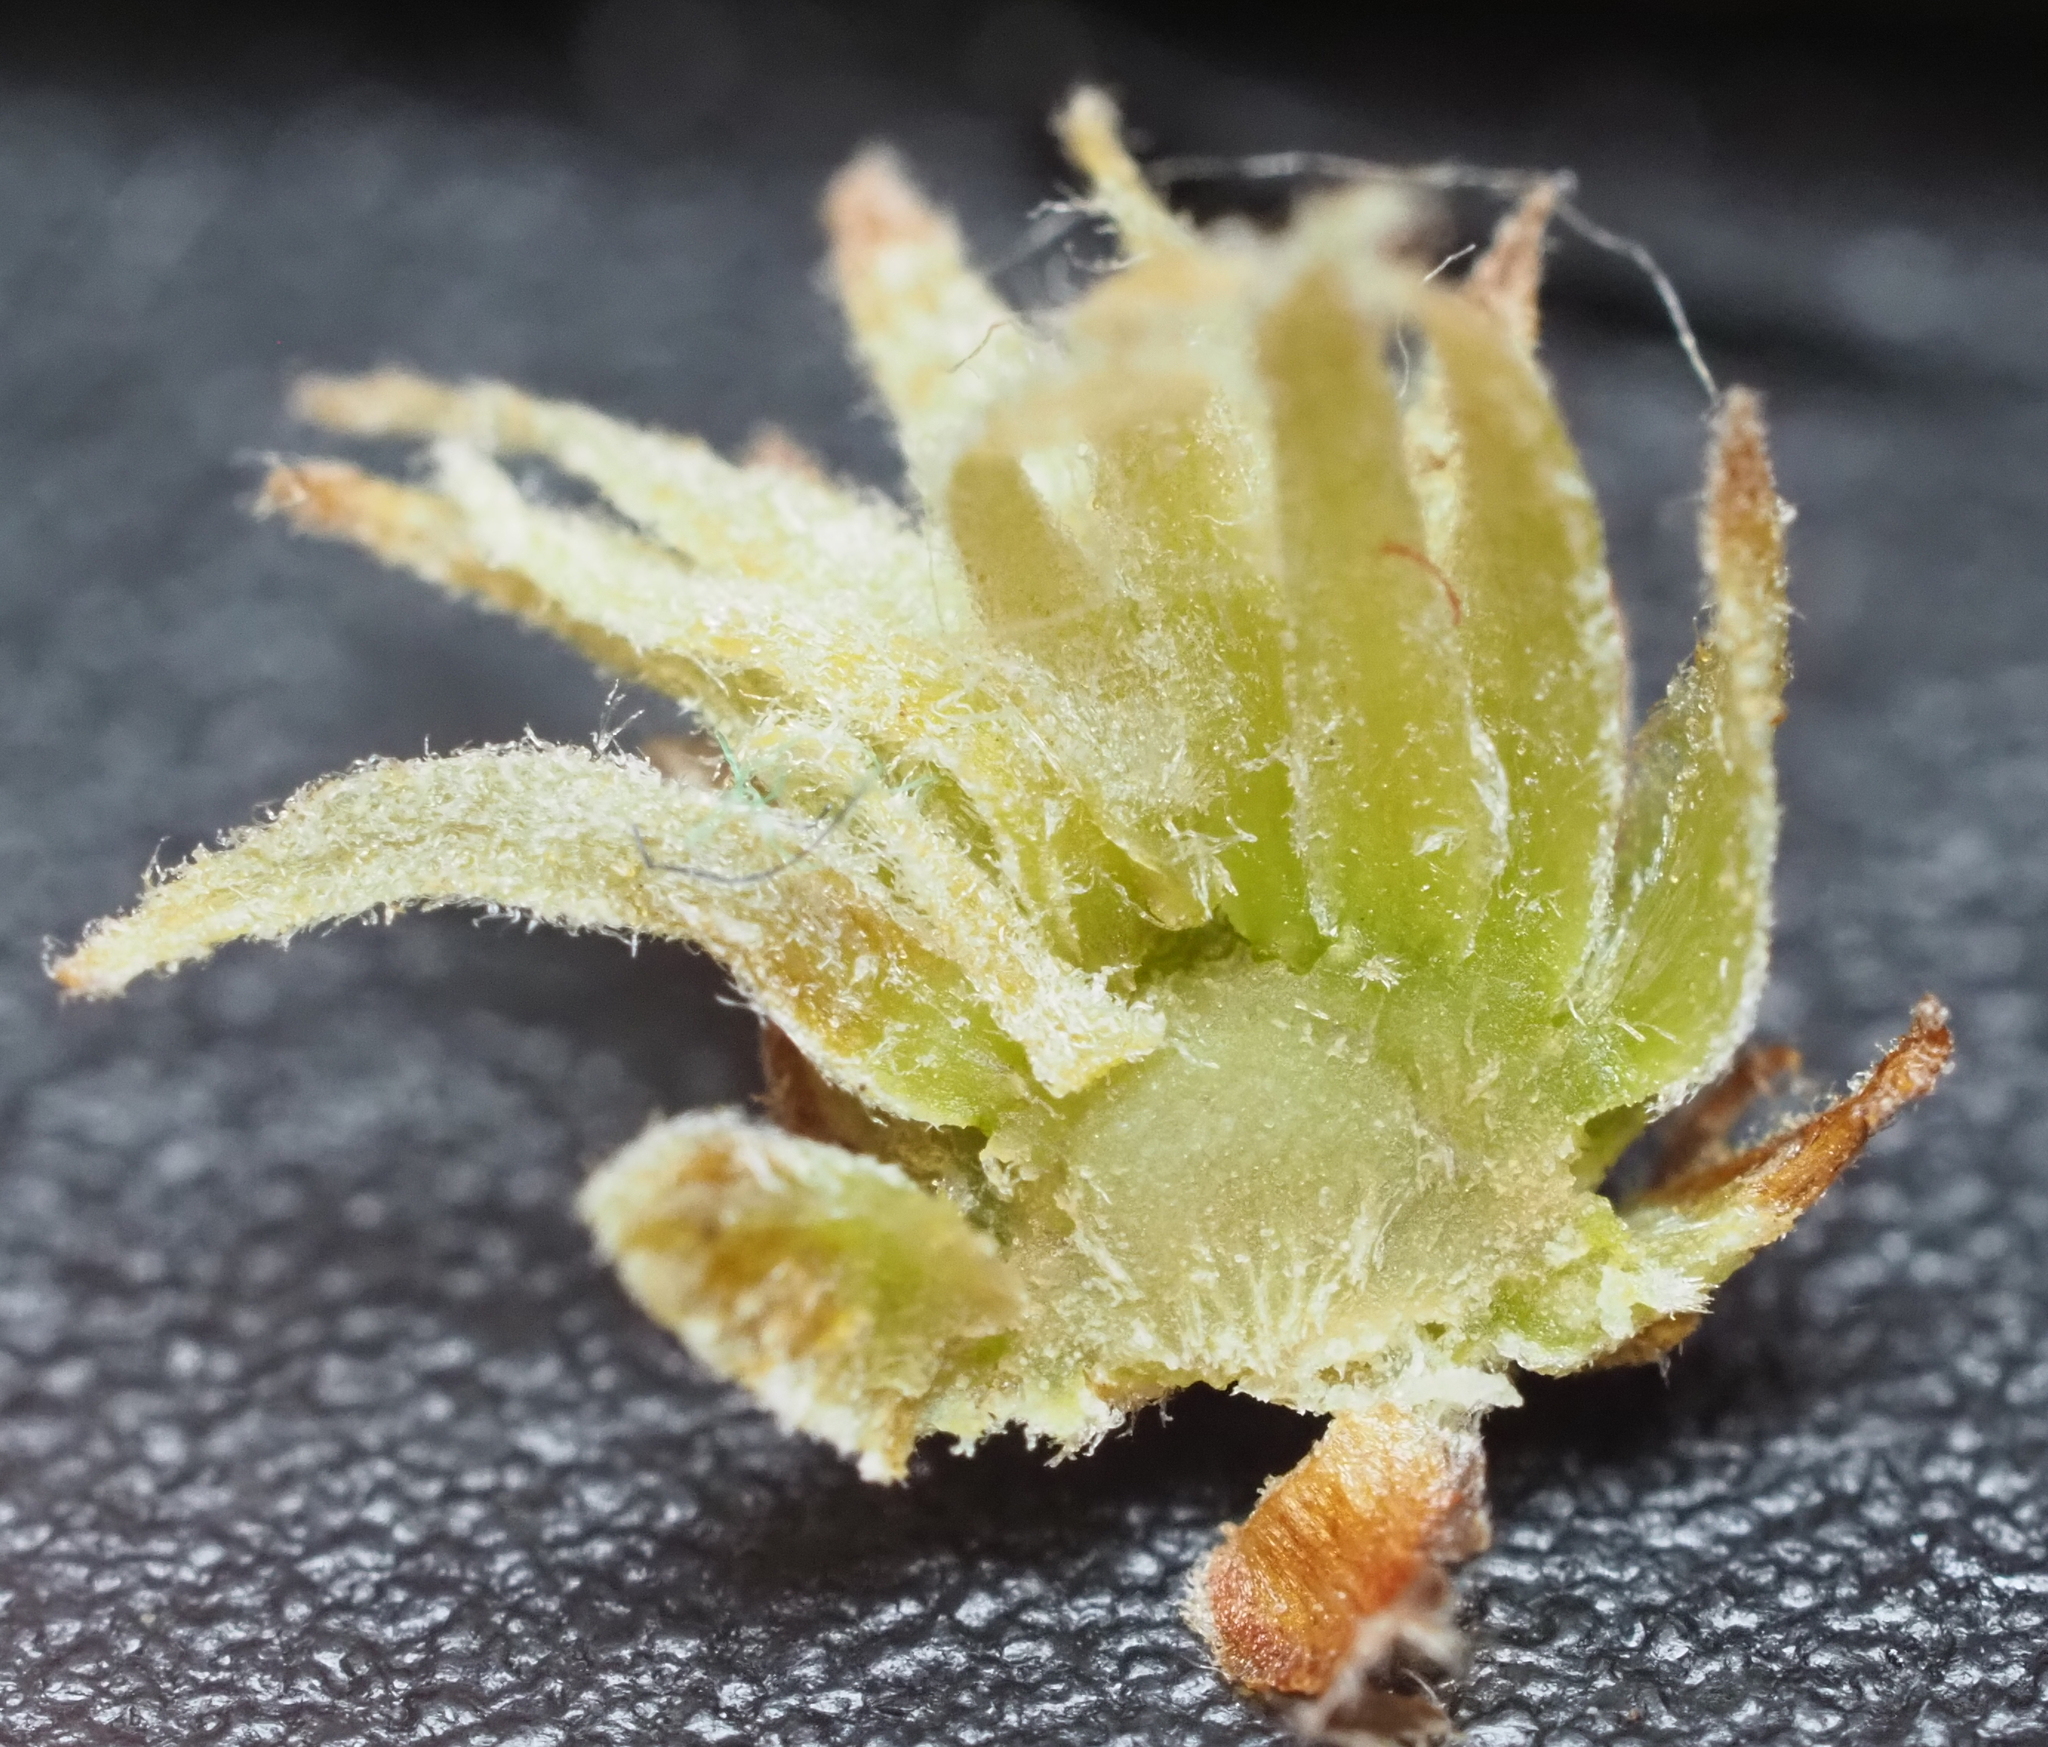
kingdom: Animalia
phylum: Arthropoda
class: Insecta
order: Hymenoptera
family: Cynipidae
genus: Andricus
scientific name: Andricus quercusfoliatus
